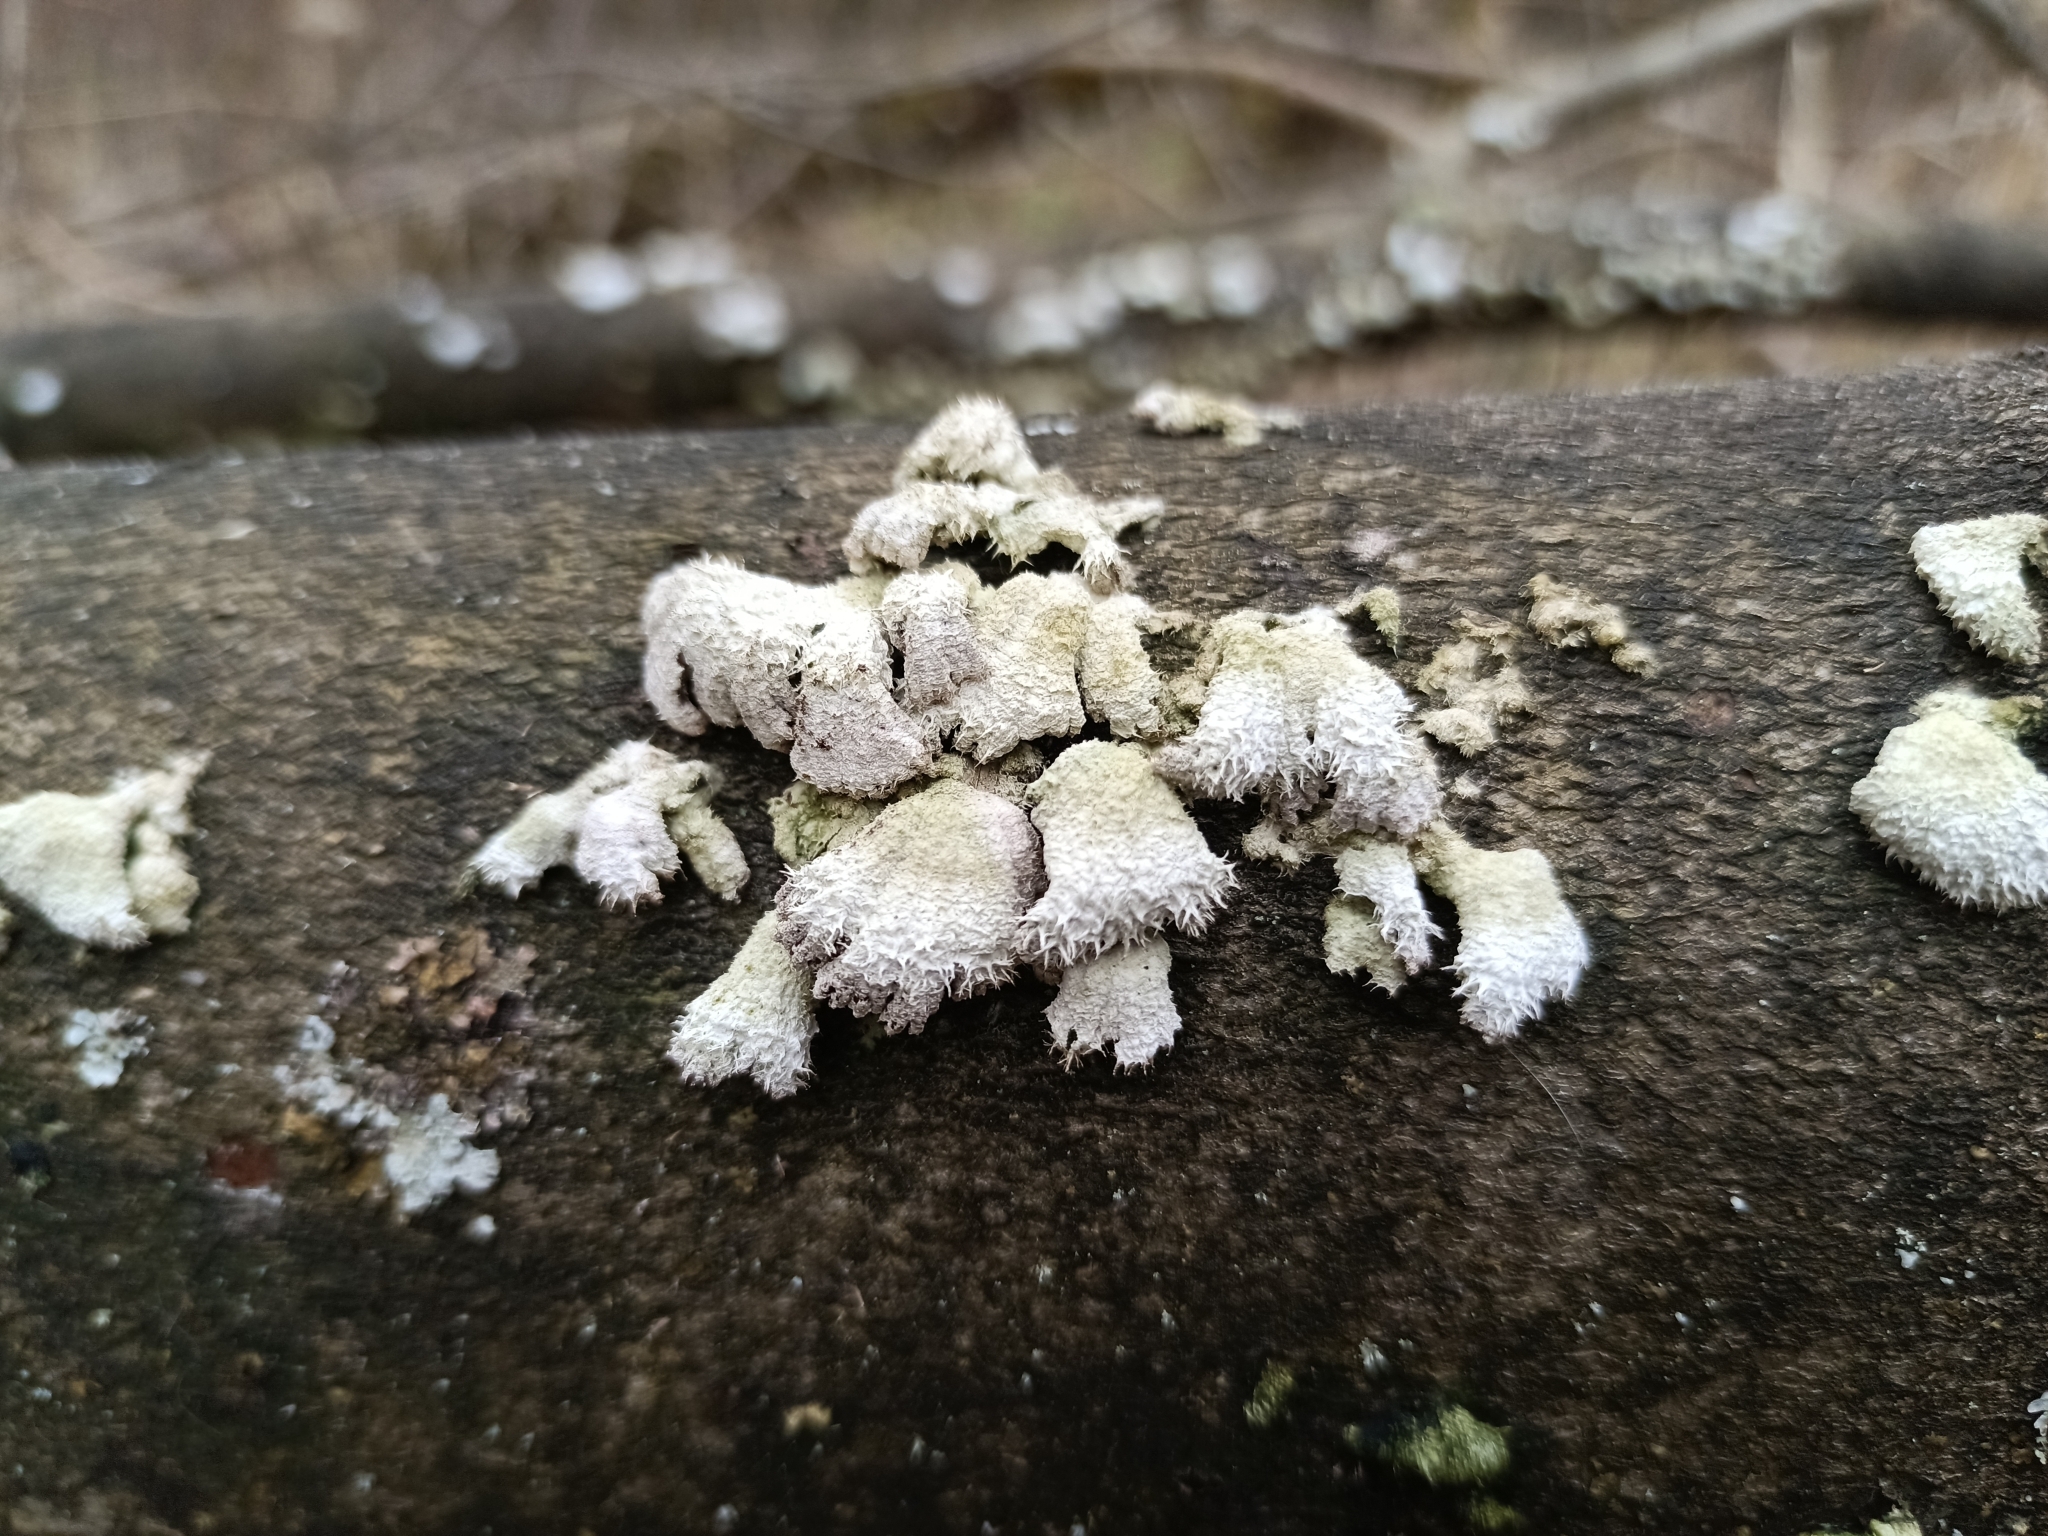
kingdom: Fungi
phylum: Basidiomycota
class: Agaricomycetes
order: Agaricales
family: Schizophyllaceae
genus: Schizophyllum
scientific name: Schizophyllum commune
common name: Common porecrust
